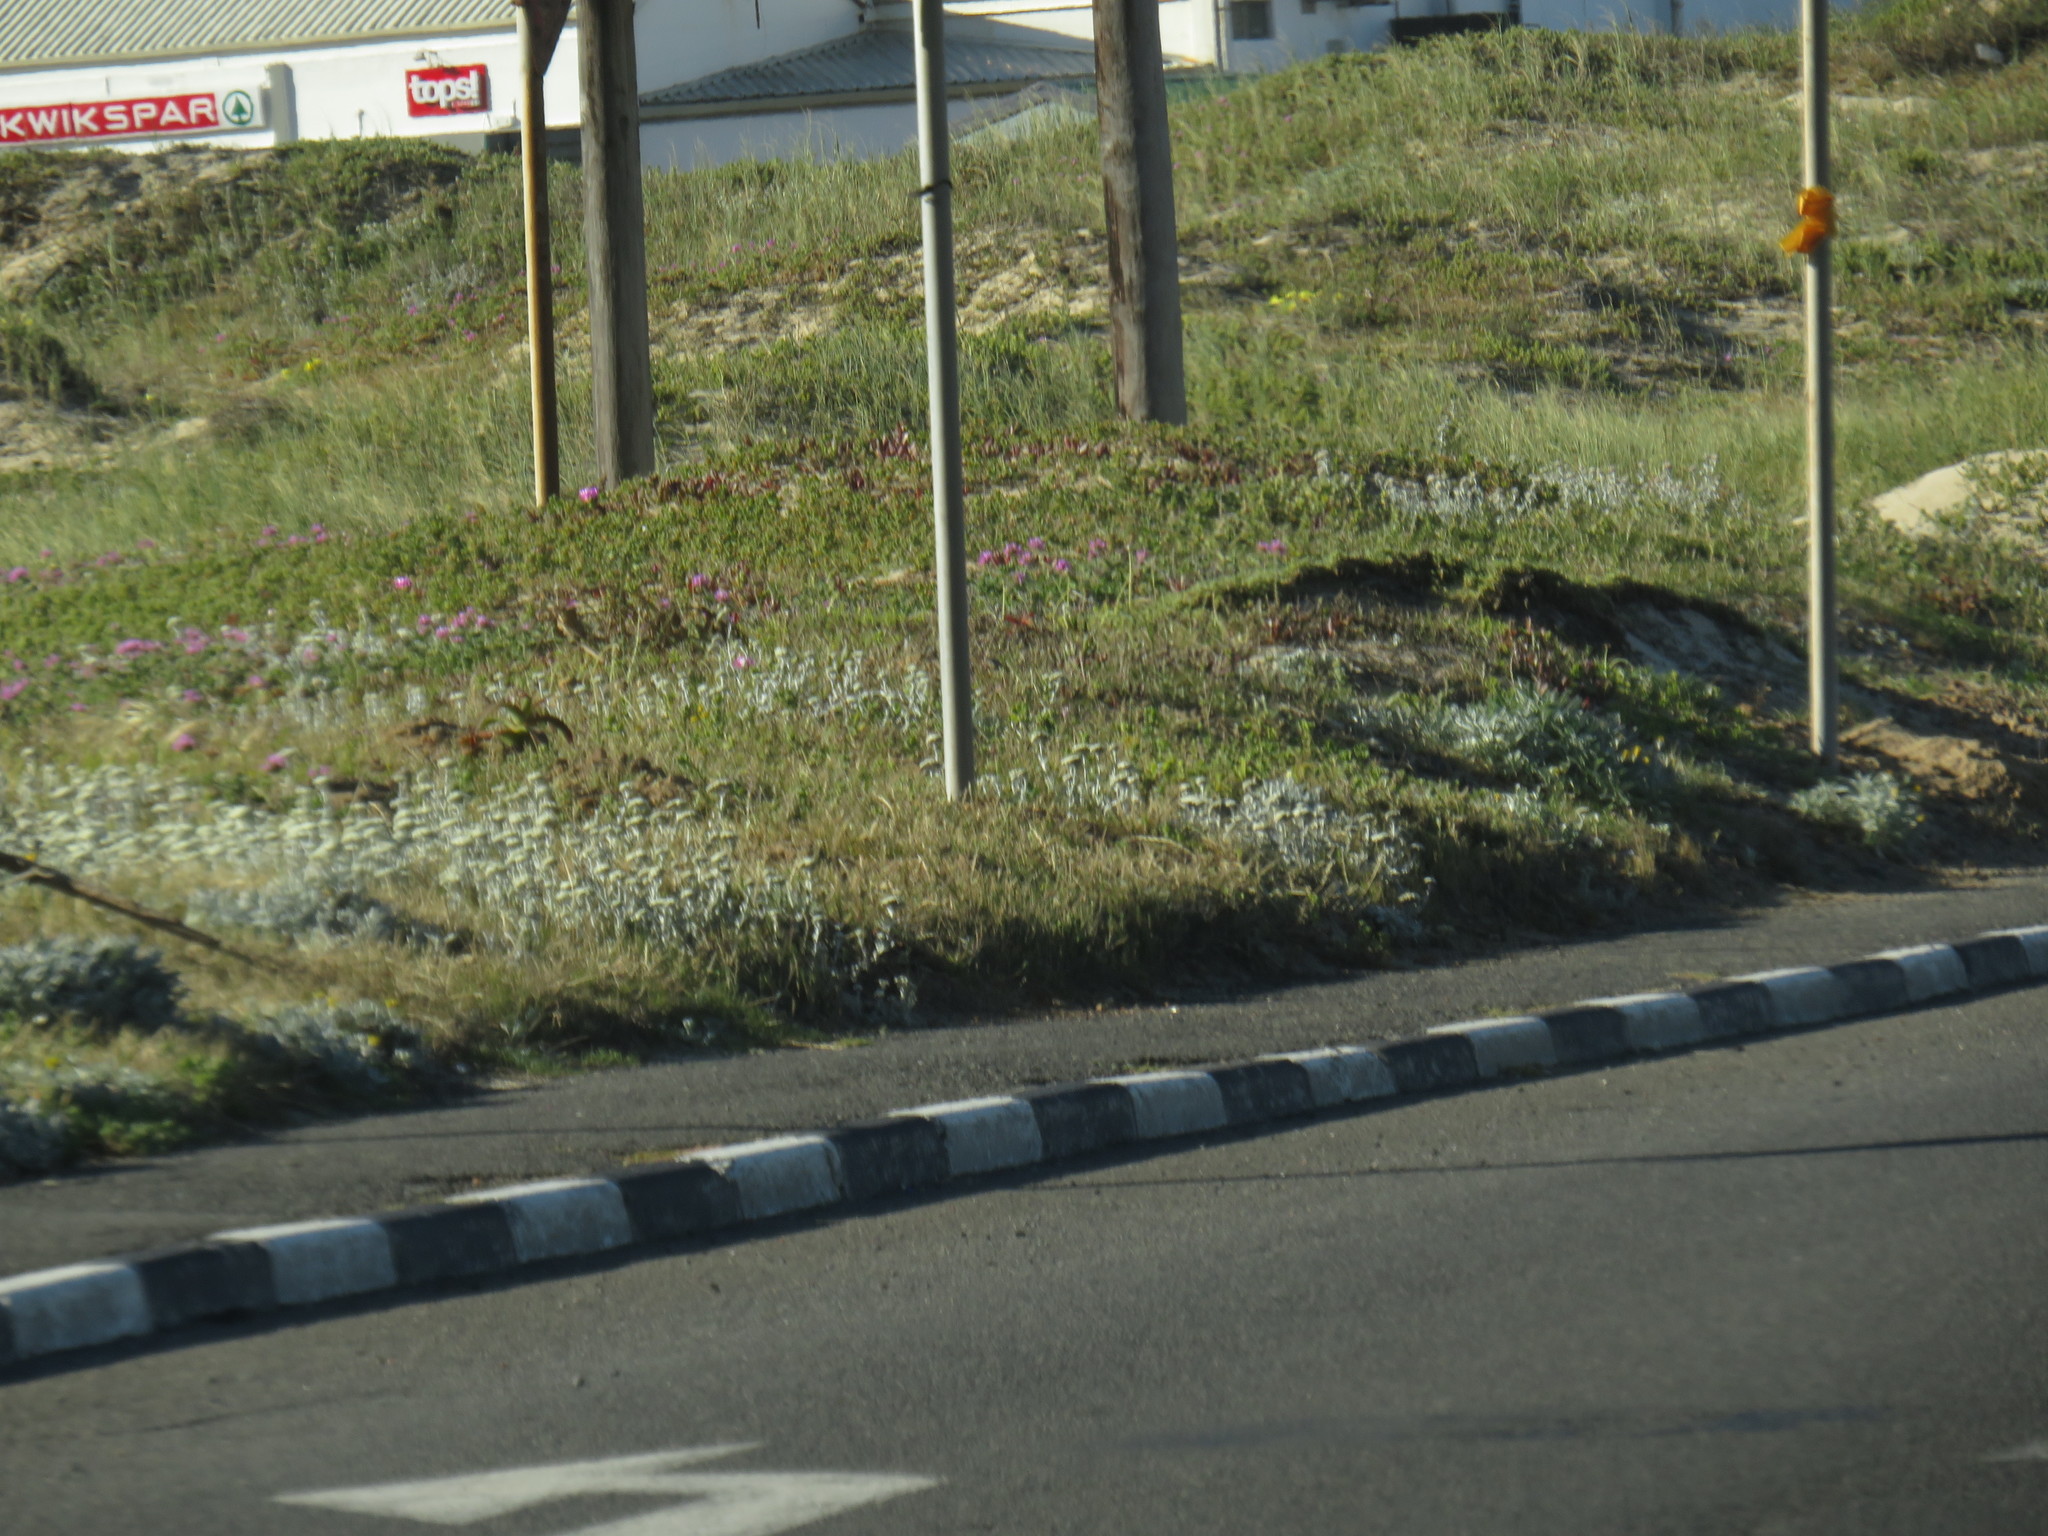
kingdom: Plantae
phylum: Tracheophyta
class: Magnoliopsida
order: Asterales
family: Asteraceae
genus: Helichrysum
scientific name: Helichrysum crispum
